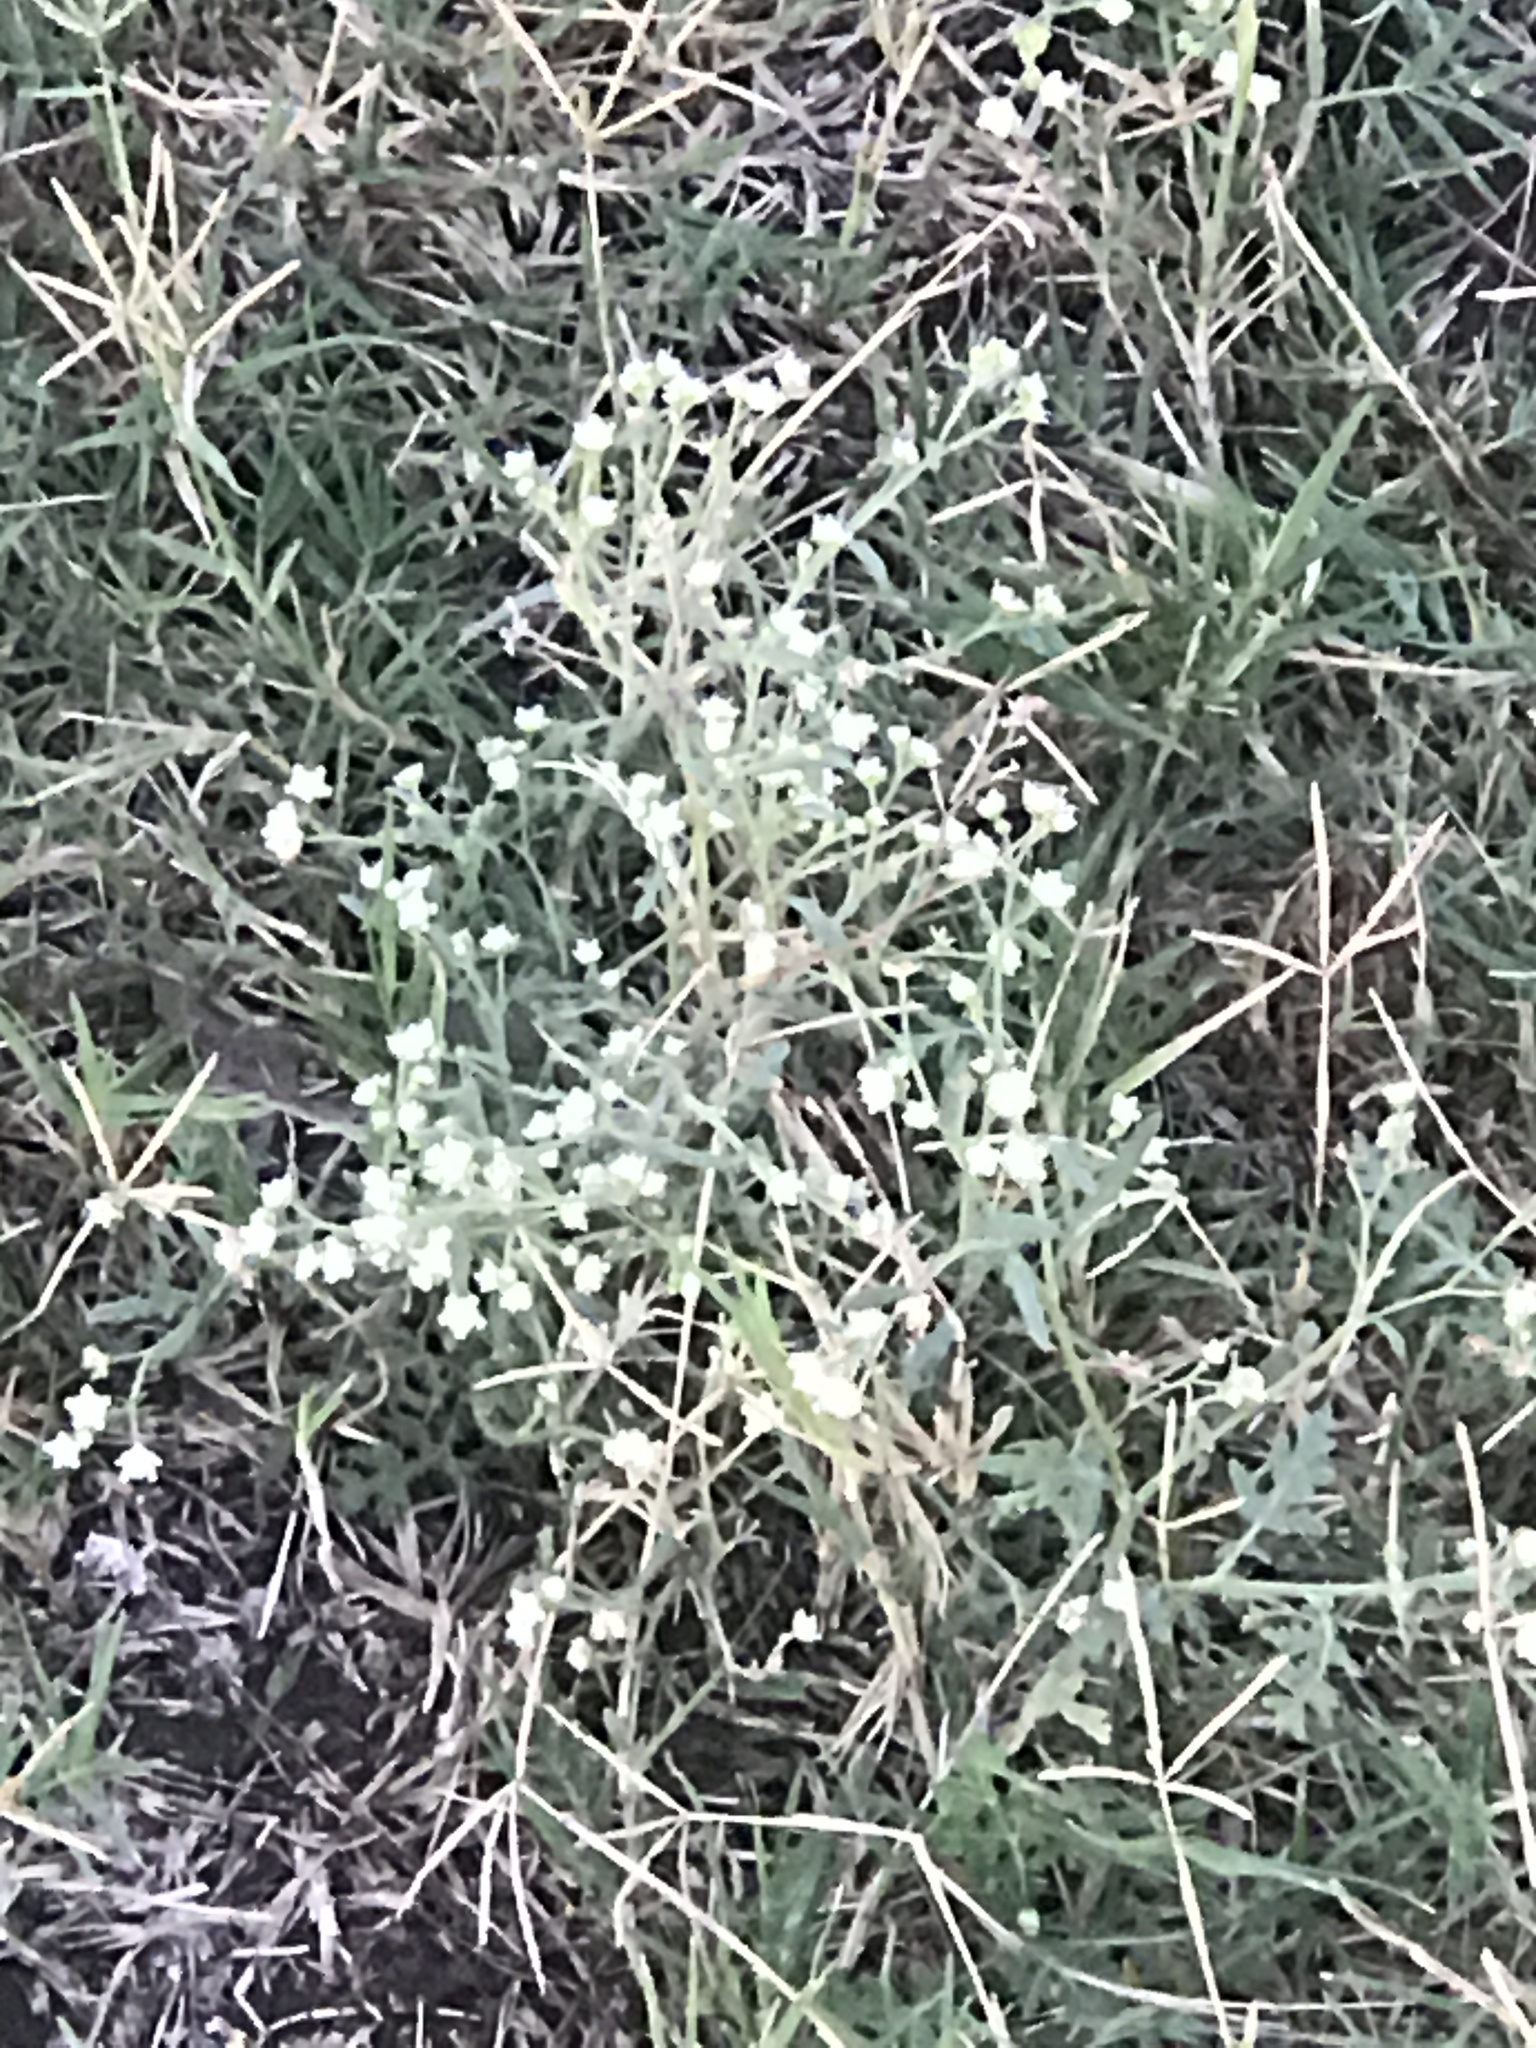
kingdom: Plantae
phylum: Tracheophyta
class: Magnoliopsida
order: Asterales
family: Asteraceae
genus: Parthenium
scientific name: Parthenium hysterophorus
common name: Santa maria feverfew
